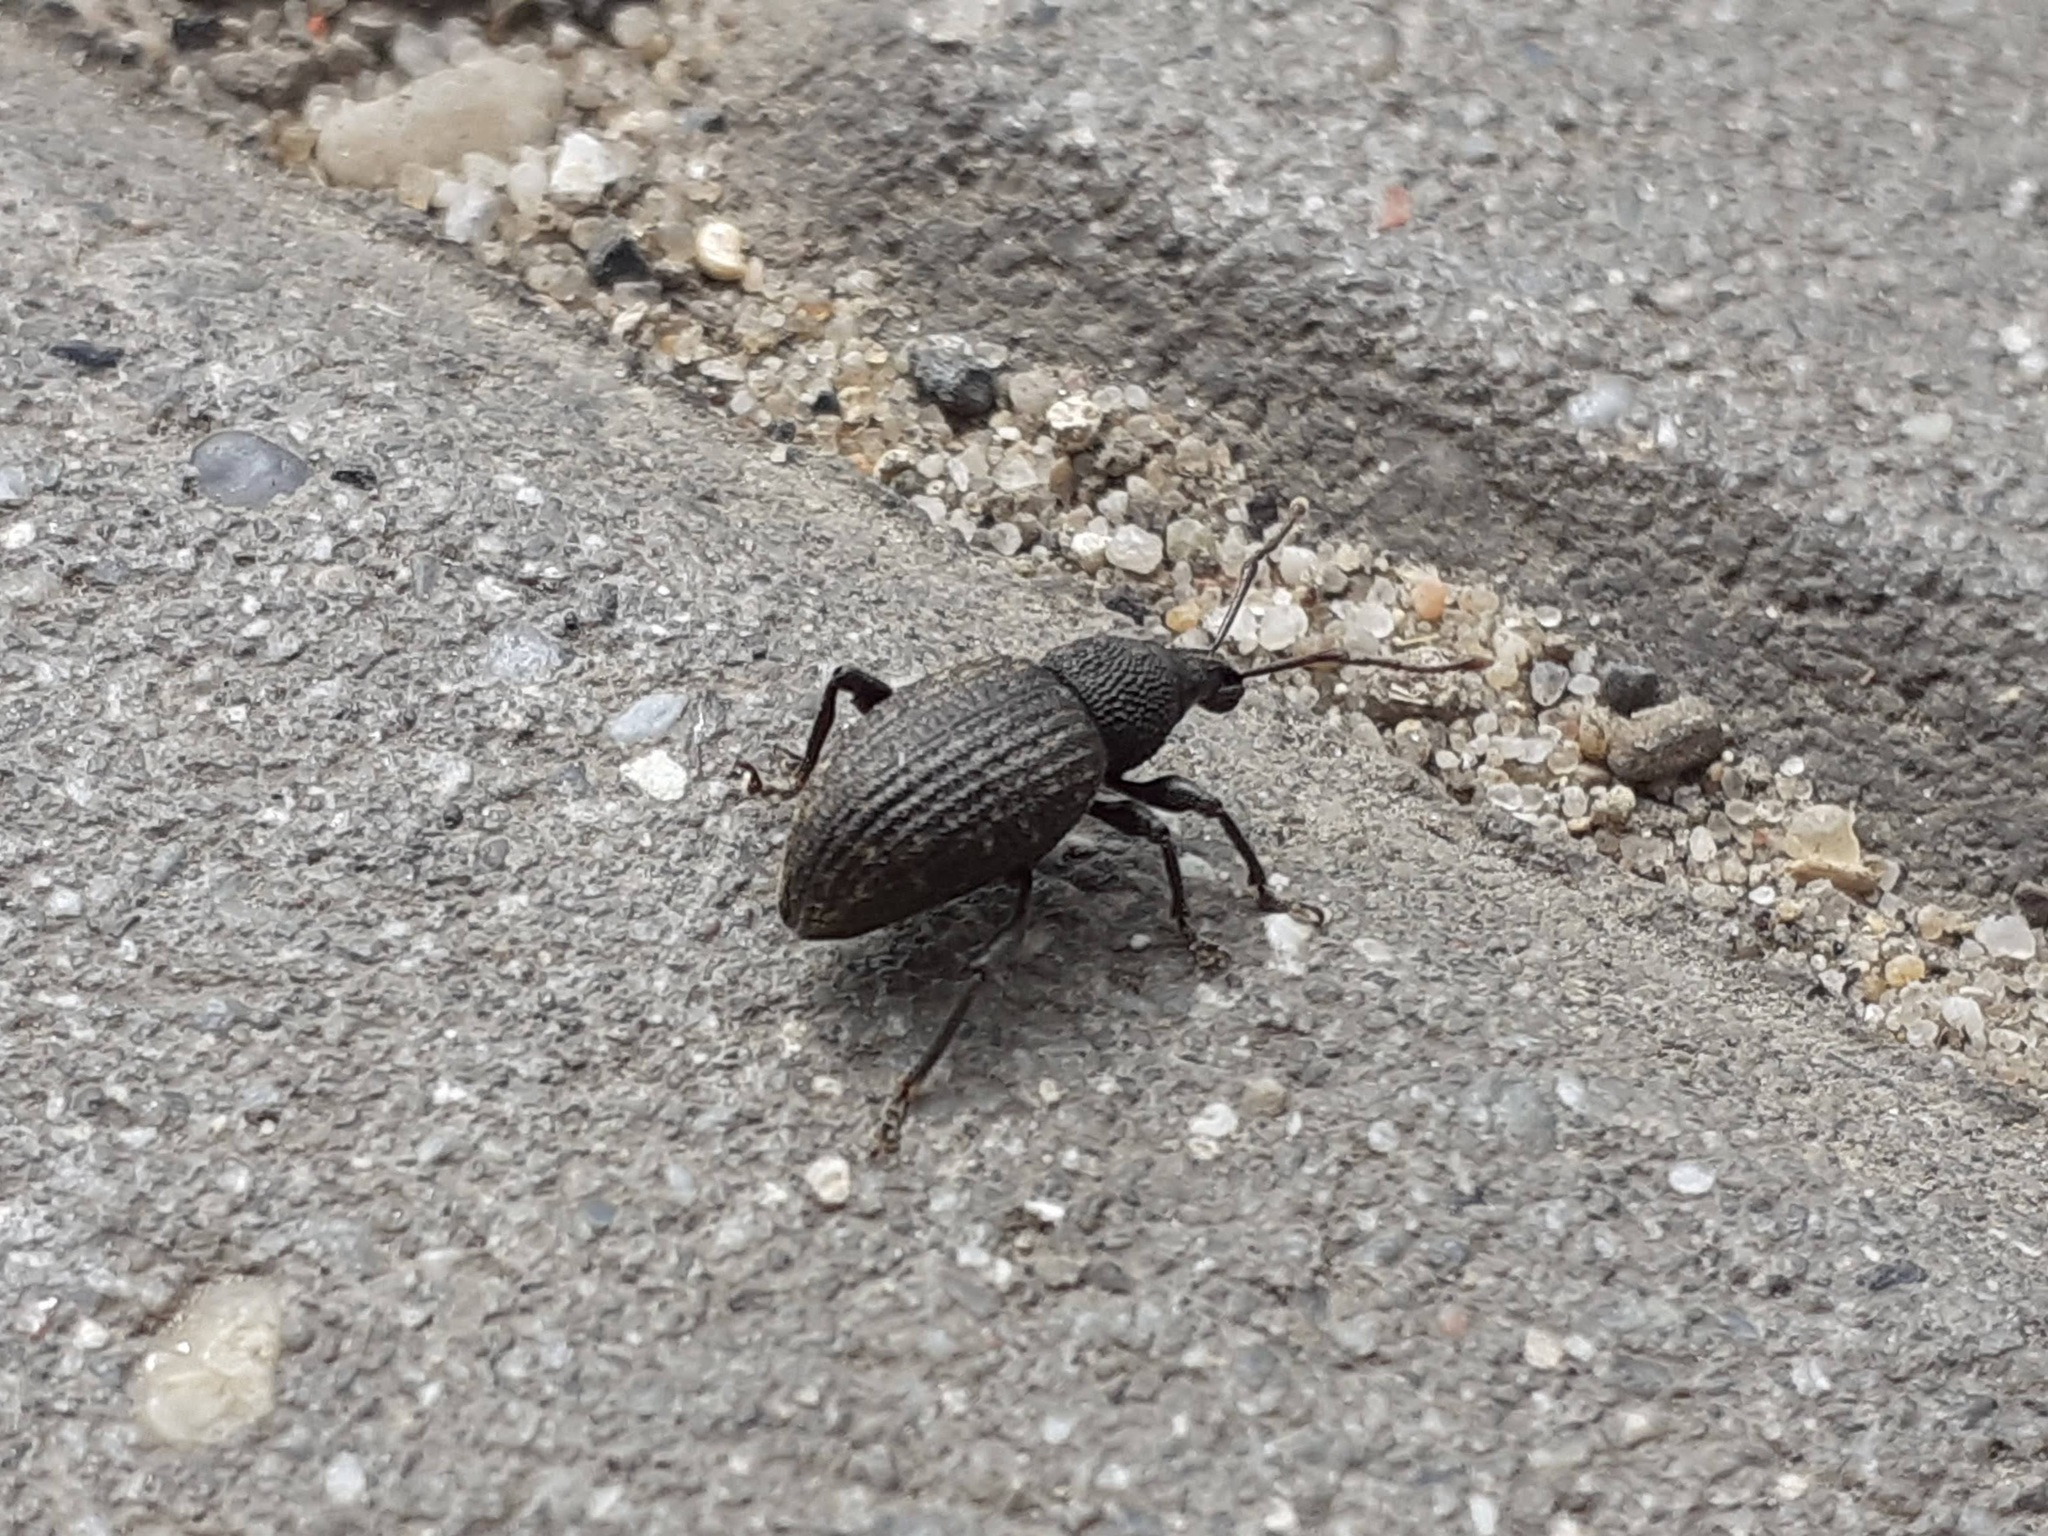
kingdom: Animalia
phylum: Arthropoda
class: Insecta
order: Coleoptera
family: Curculionidae
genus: Otiorhynchus
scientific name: Otiorhynchus sulcatus
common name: Black vine weevil
